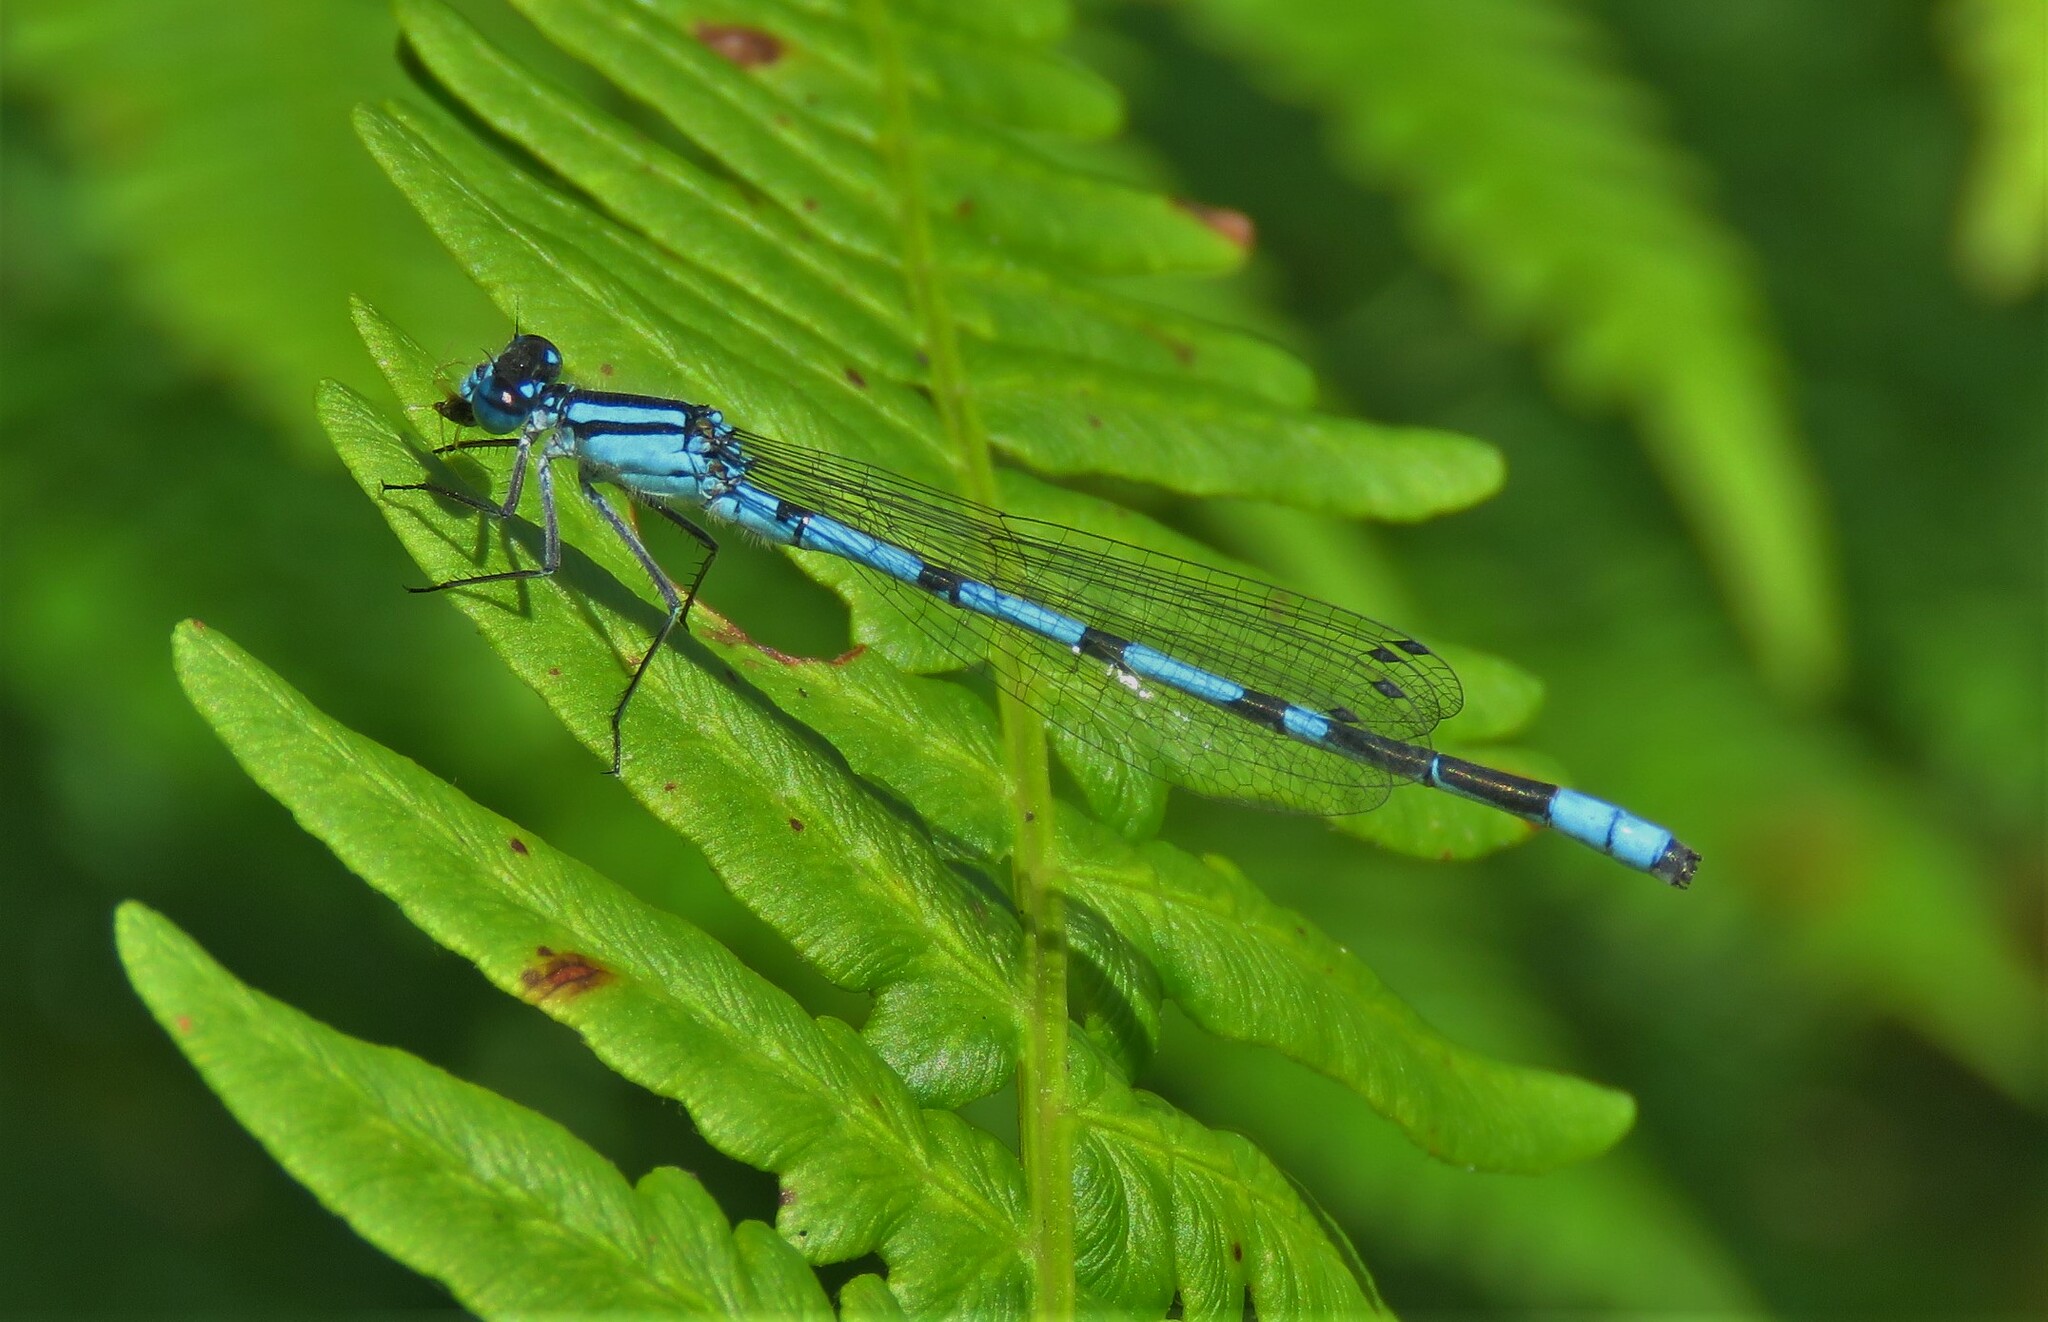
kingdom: Animalia
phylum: Arthropoda
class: Insecta
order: Odonata
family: Coenagrionidae
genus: Enallagma
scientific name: Enallagma ebrium
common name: Marsh bluet
